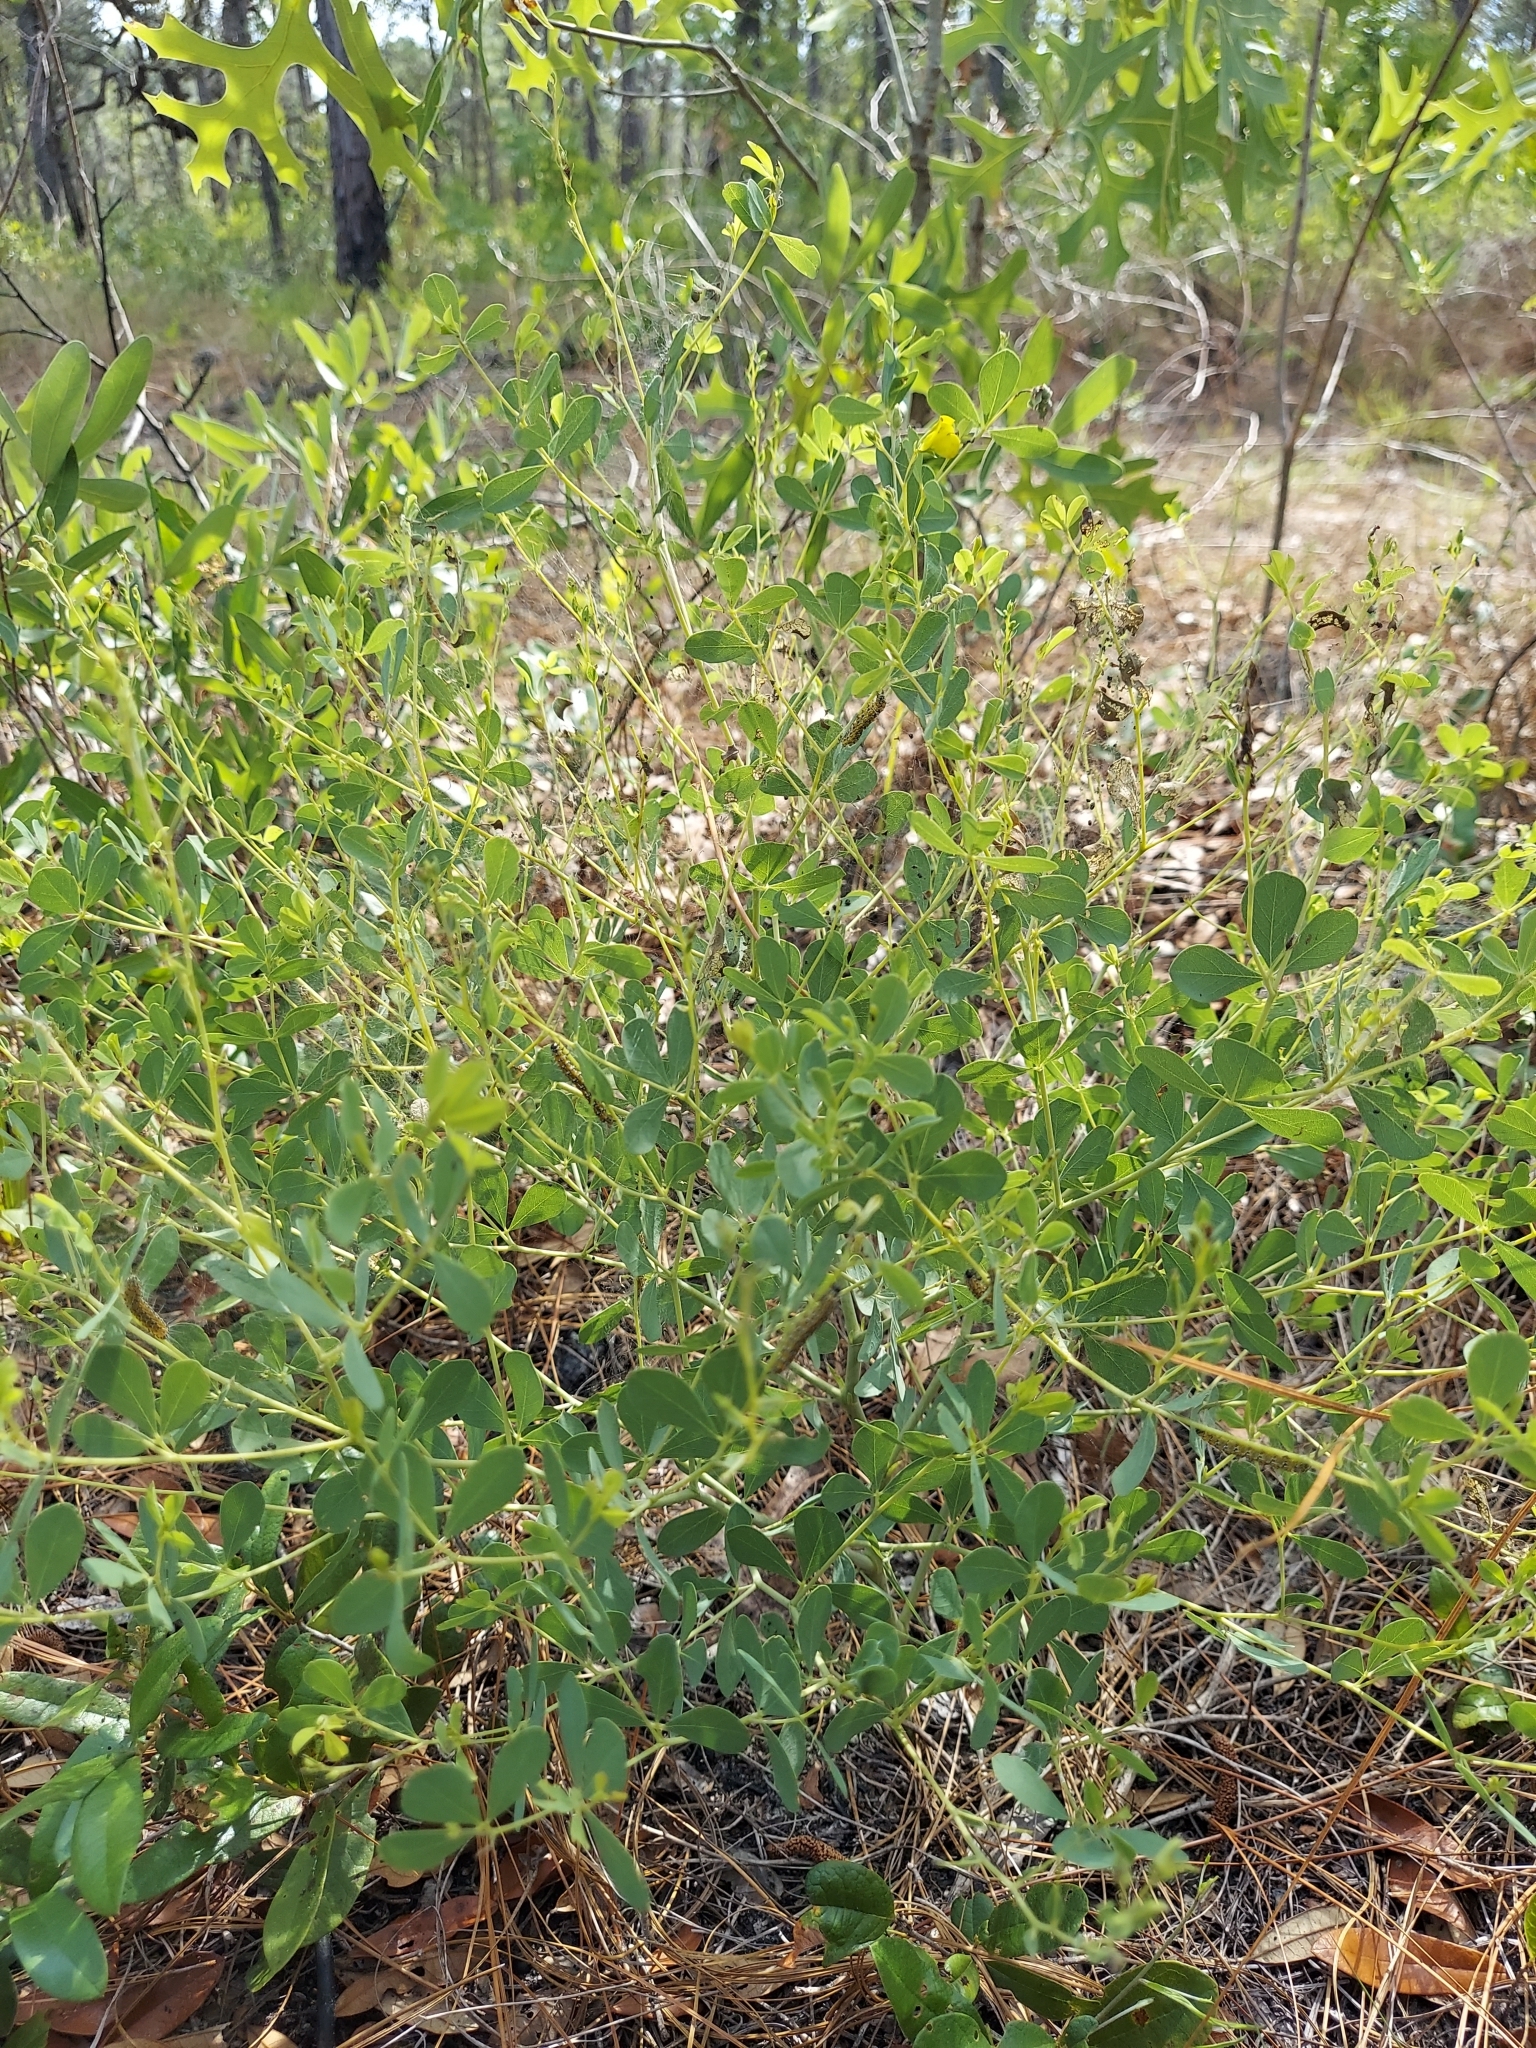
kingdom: Plantae
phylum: Tracheophyta
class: Magnoliopsida
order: Fabales
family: Fabaceae
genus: Baptisia
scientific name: Baptisia lecontei
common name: Pineland wild indigo
